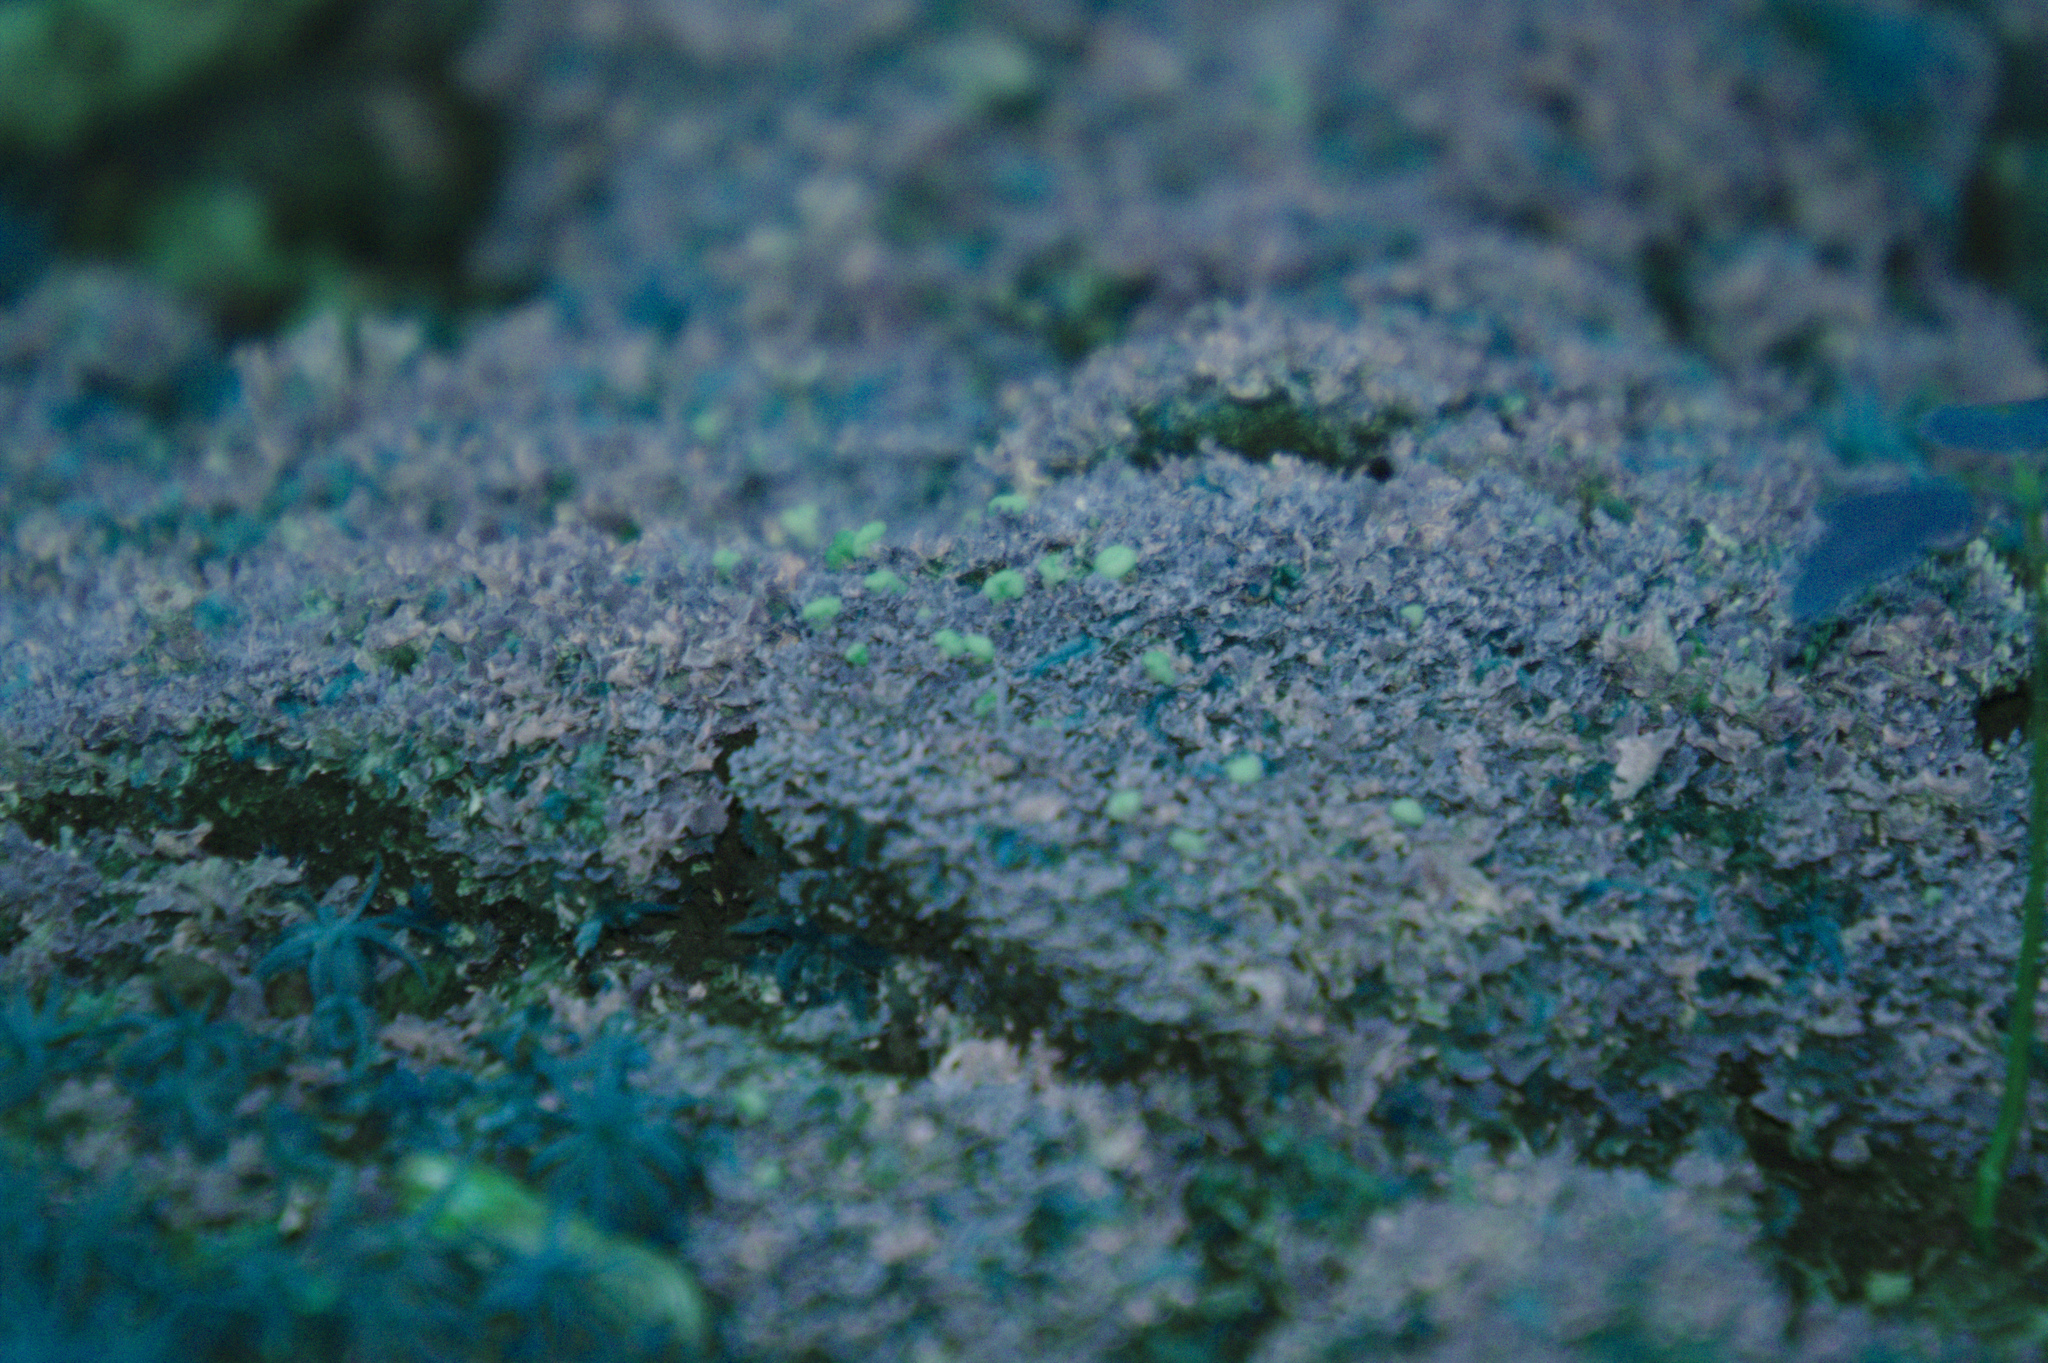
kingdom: Fungi
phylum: Ascomycota
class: Lecanoromycetes
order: Lecanorales
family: Cladoniaceae
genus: Cladonia
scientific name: Cladonia caespiticia
